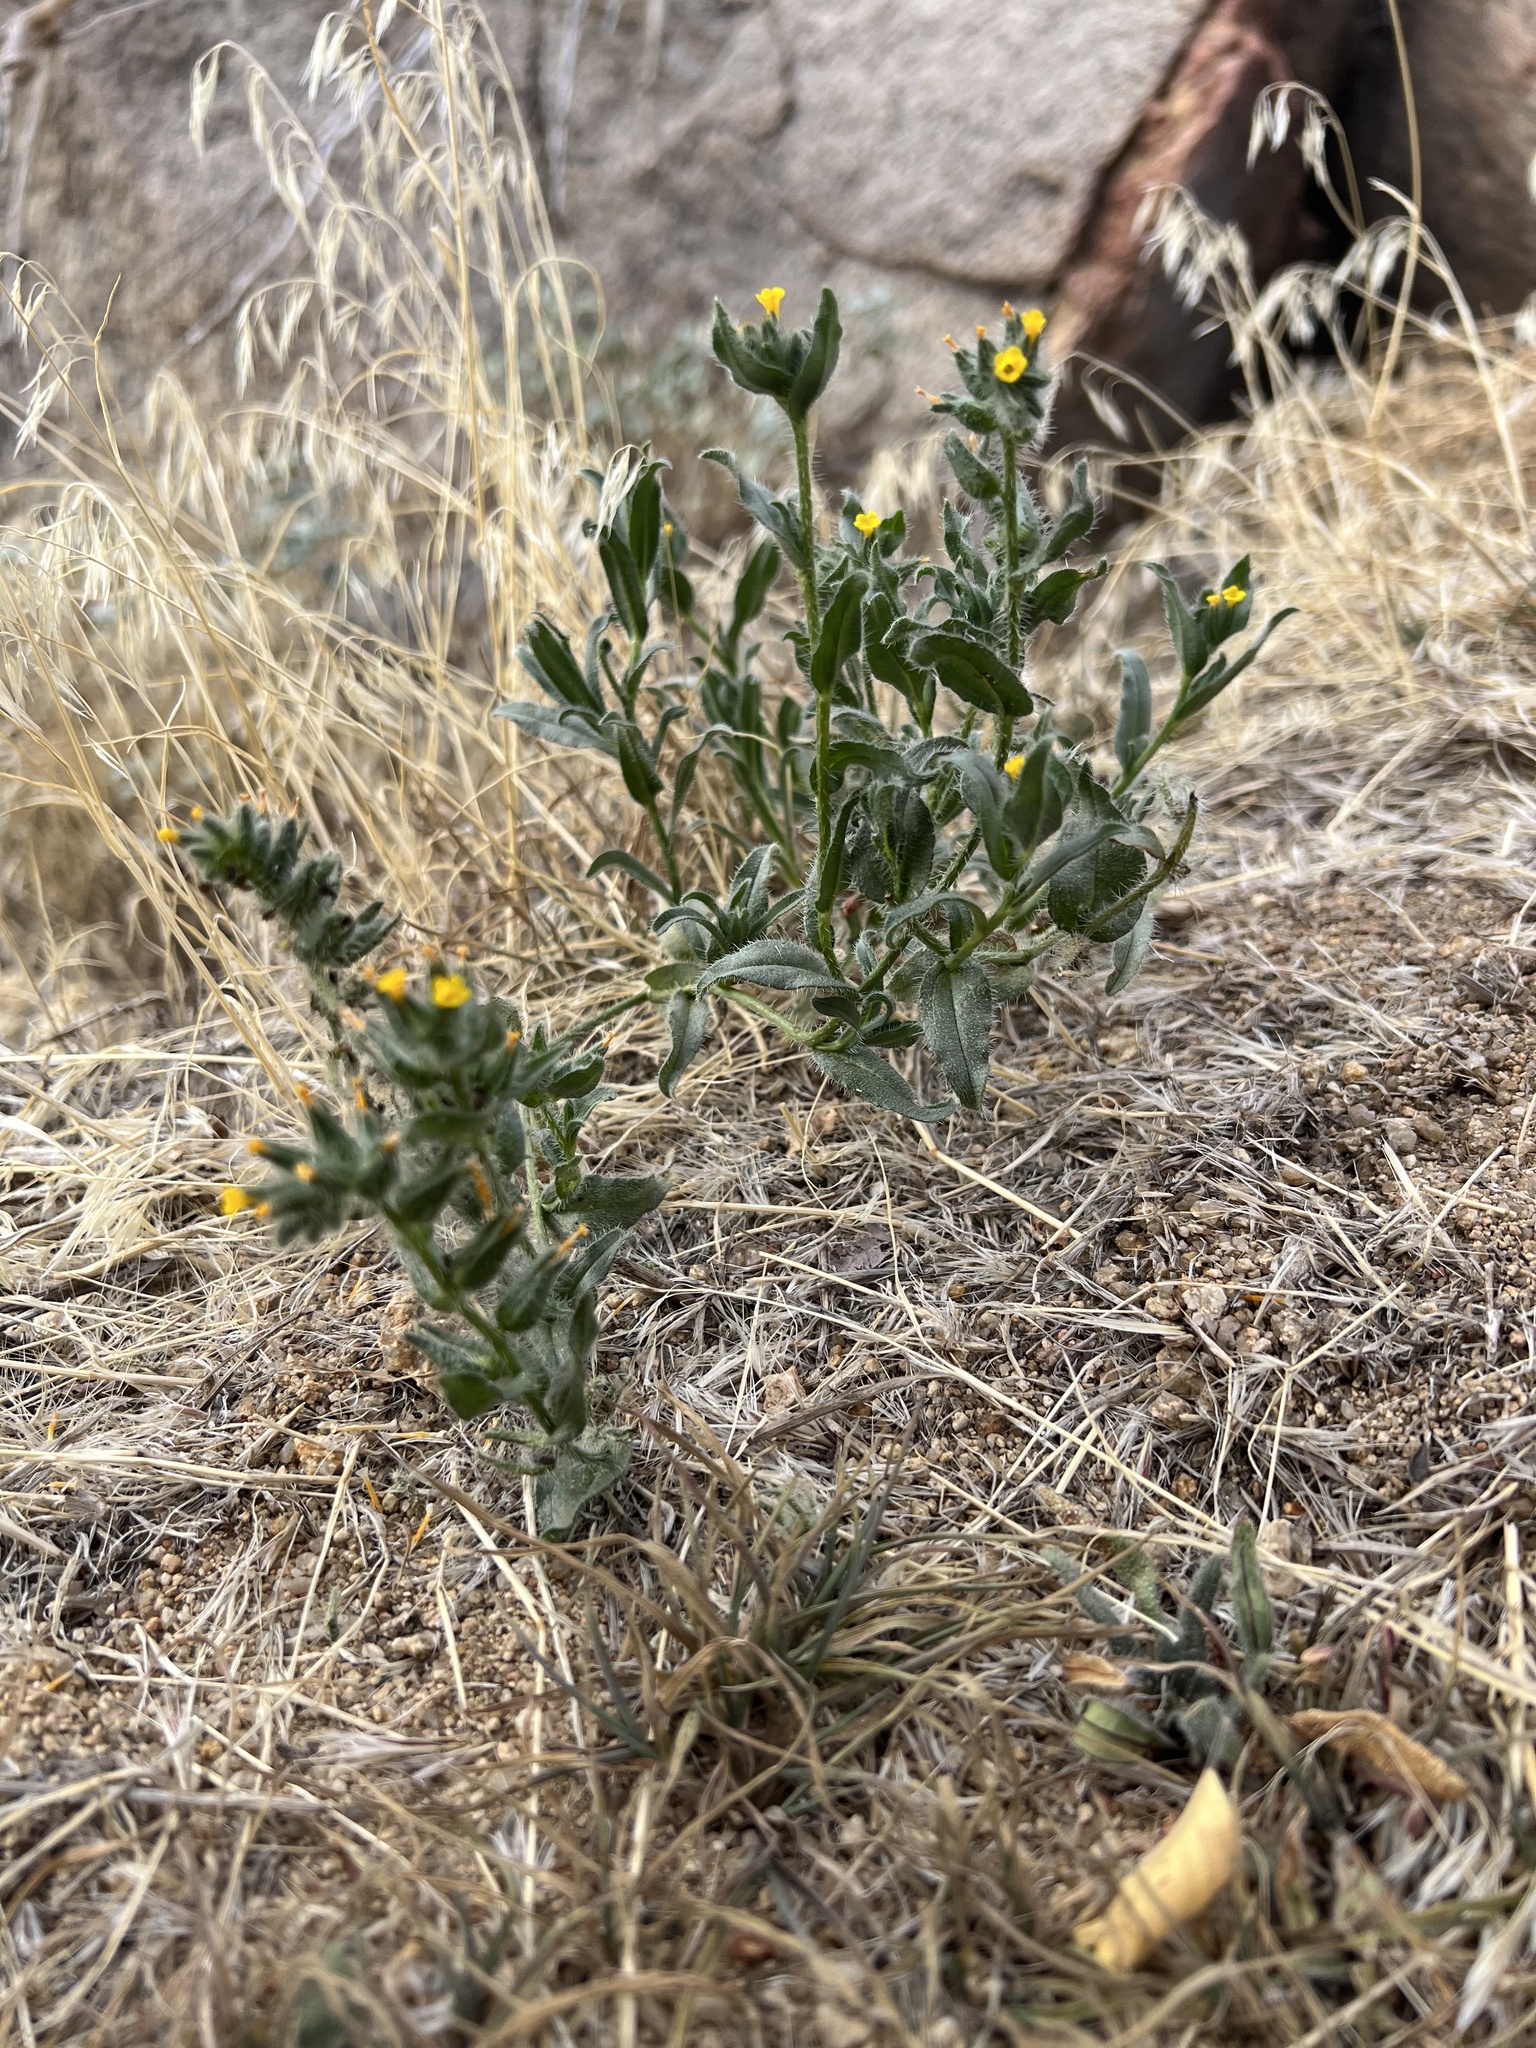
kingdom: Plantae
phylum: Tracheophyta
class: Magnoliopsida
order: Boraginales
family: Boraginaceae
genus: Amsinckia
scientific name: Amsinckia tessellata
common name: Tessellate fiddleneck
